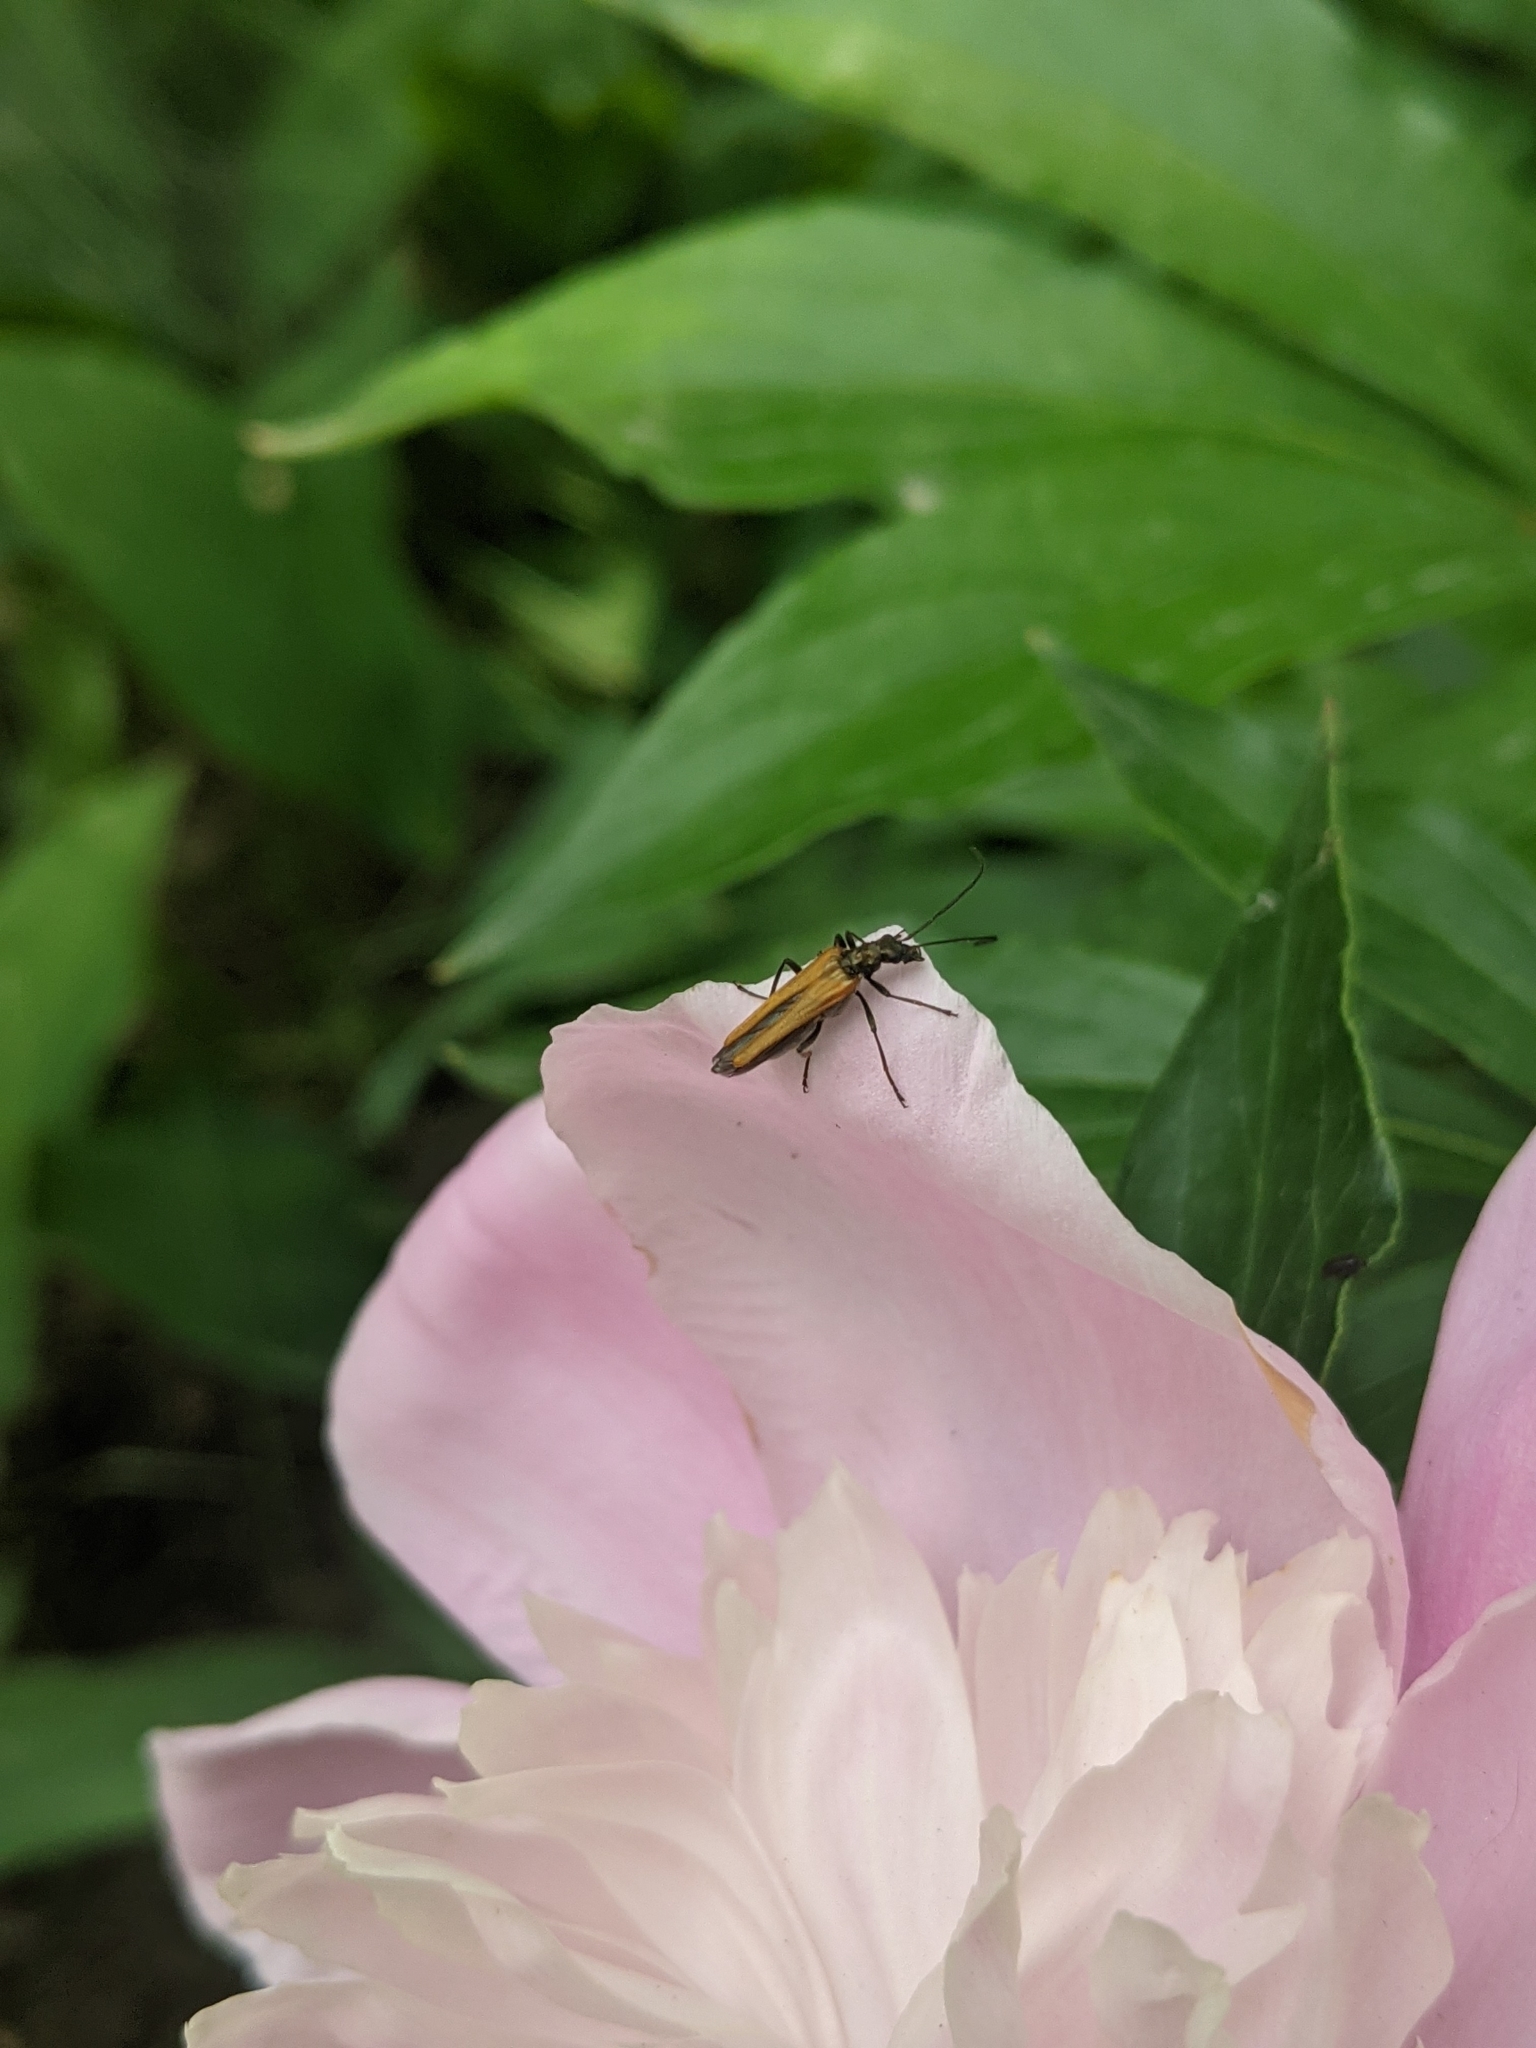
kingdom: Animalia
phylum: Arthropoda
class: Insecta
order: Coleoptera
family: Oedemeridae
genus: Oedemera
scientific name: Oedemera femorata
